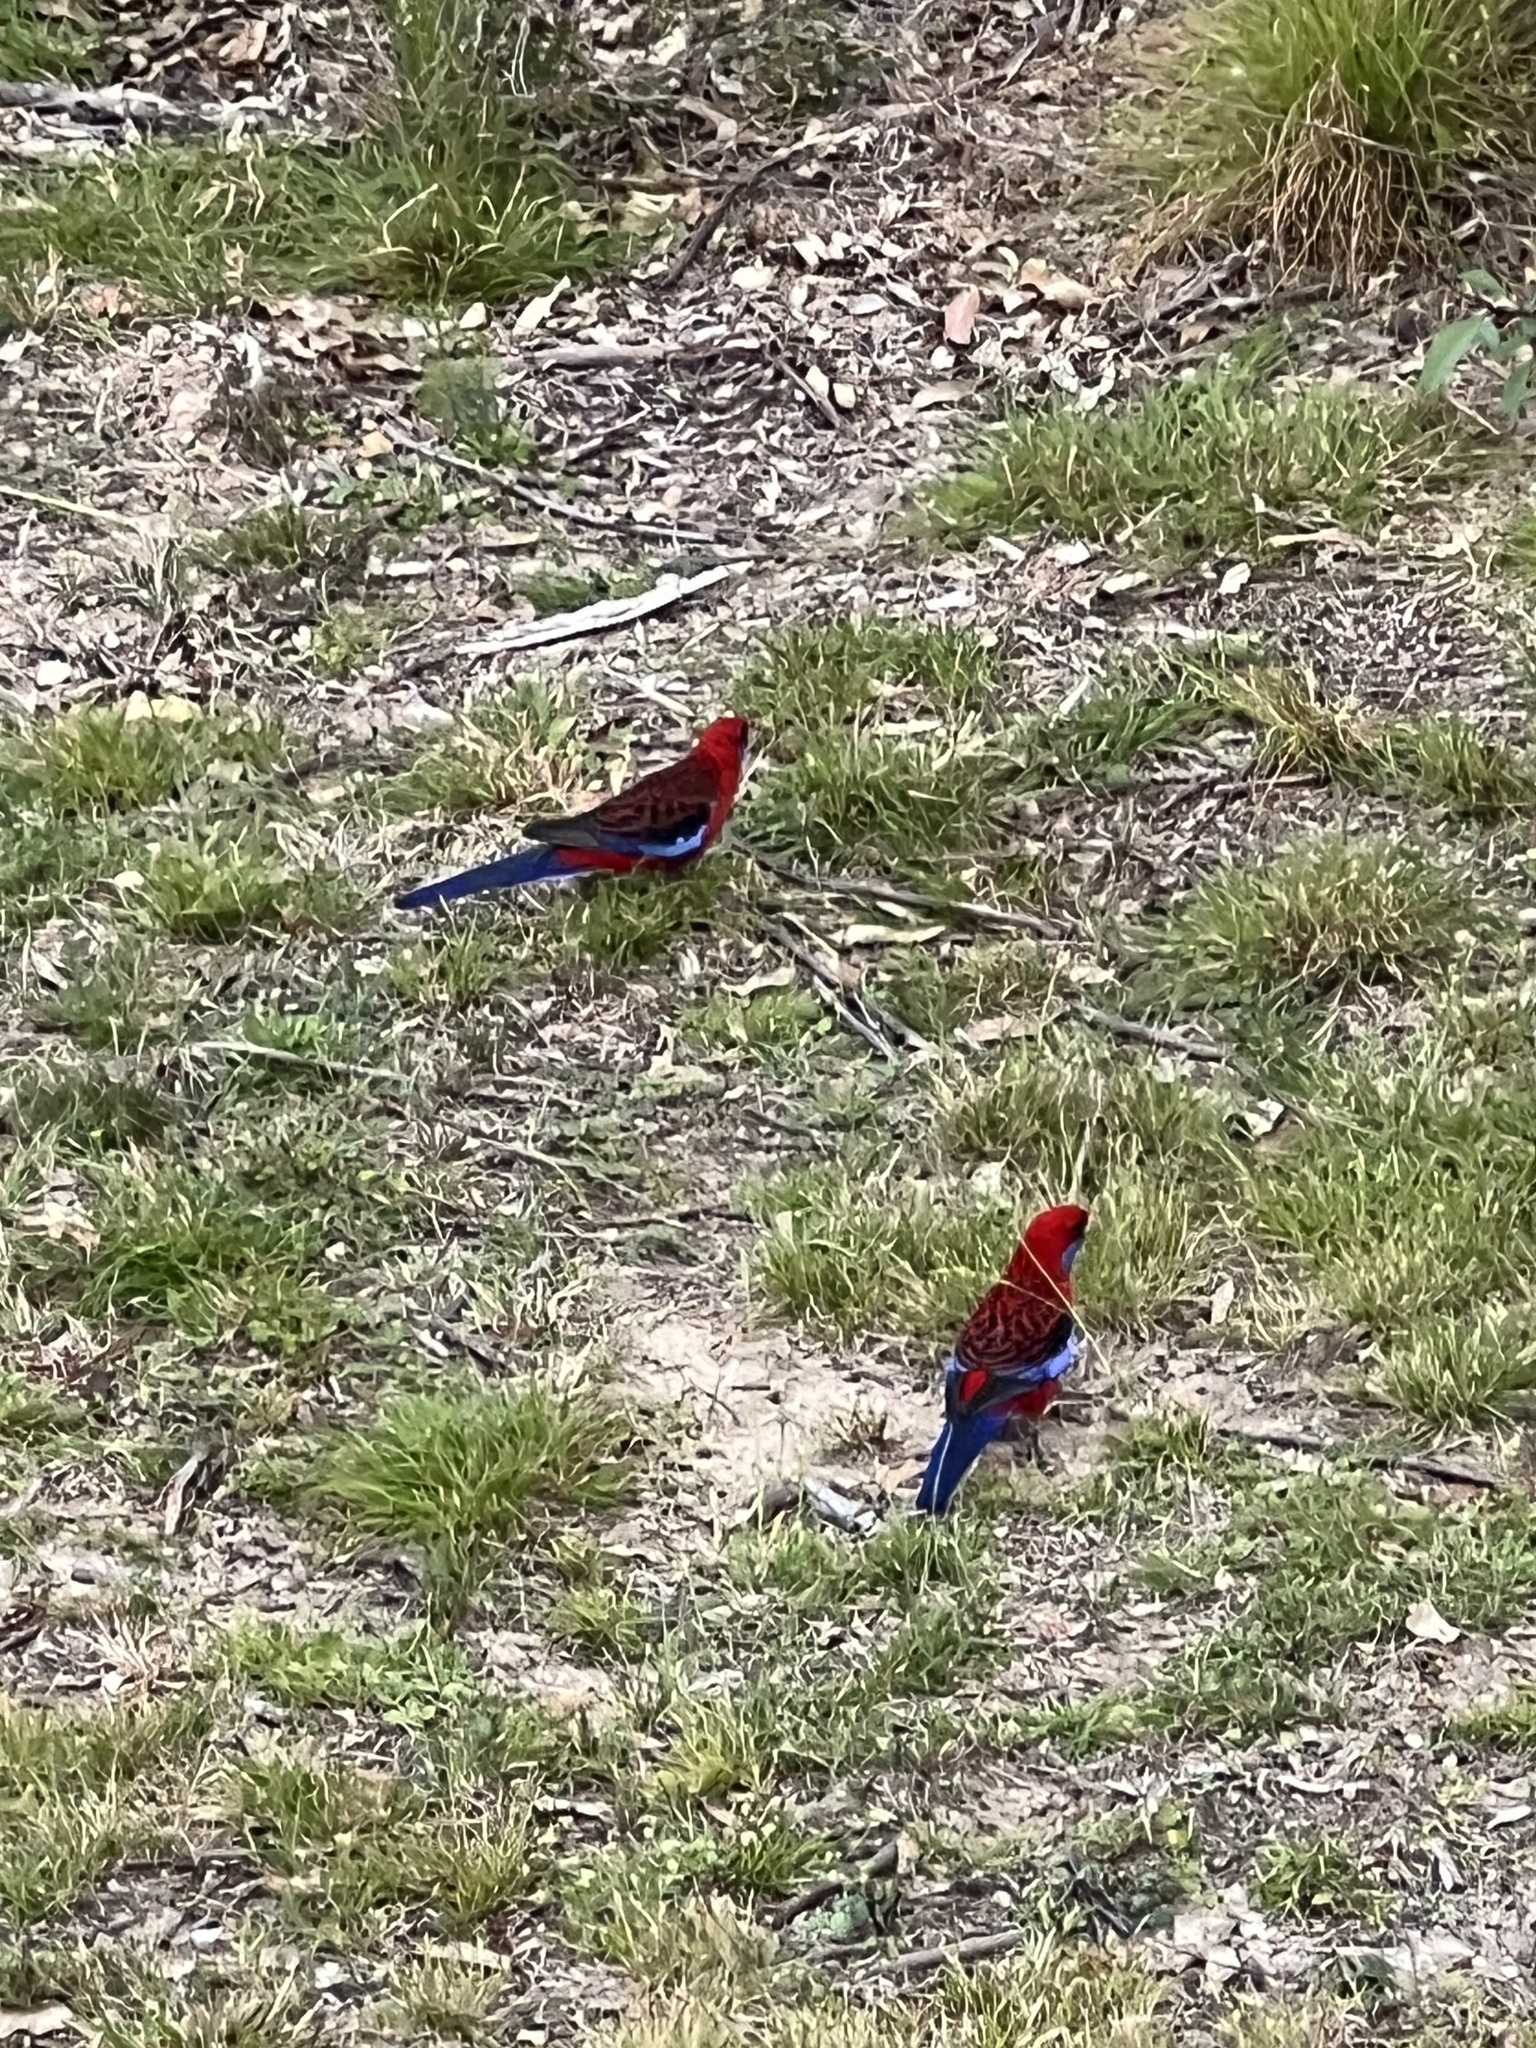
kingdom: Animalia
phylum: Chordata
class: Aves
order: Psittaciformes
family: Psittacidae
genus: Platycercus
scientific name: Platycercus elegans
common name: Crimson rosella
